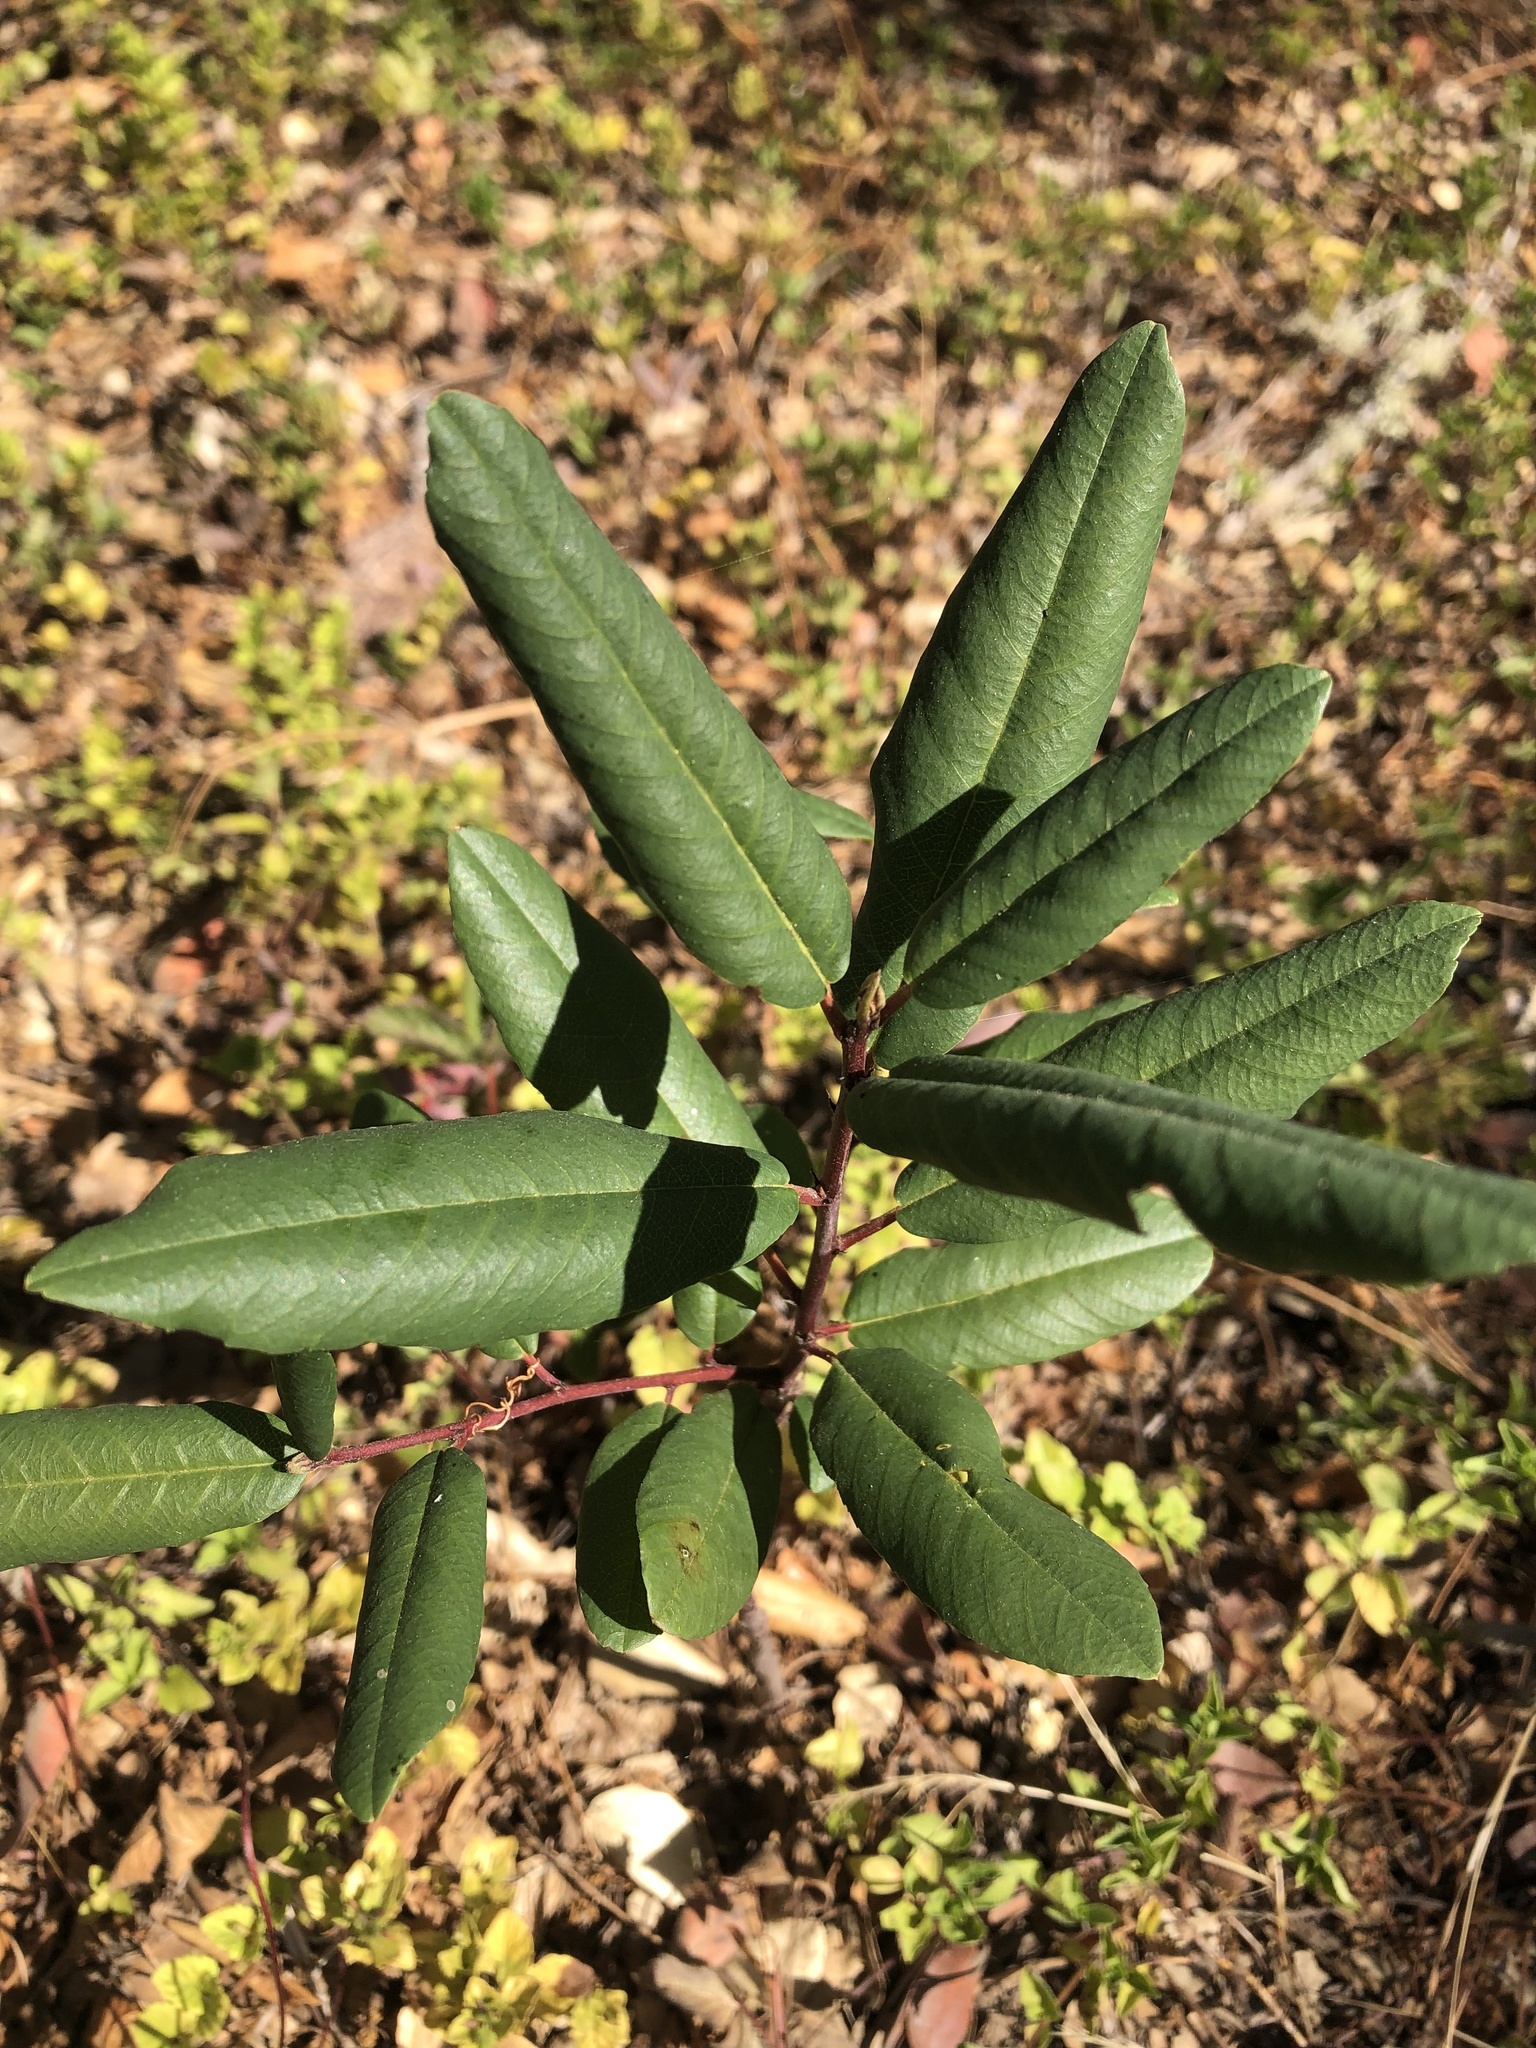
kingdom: Plantae
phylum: Tracheophyta
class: Magnoliopsida
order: Rosales
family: Rhamnaceae
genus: Frangula
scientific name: Frangula californica
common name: California buckthorn
